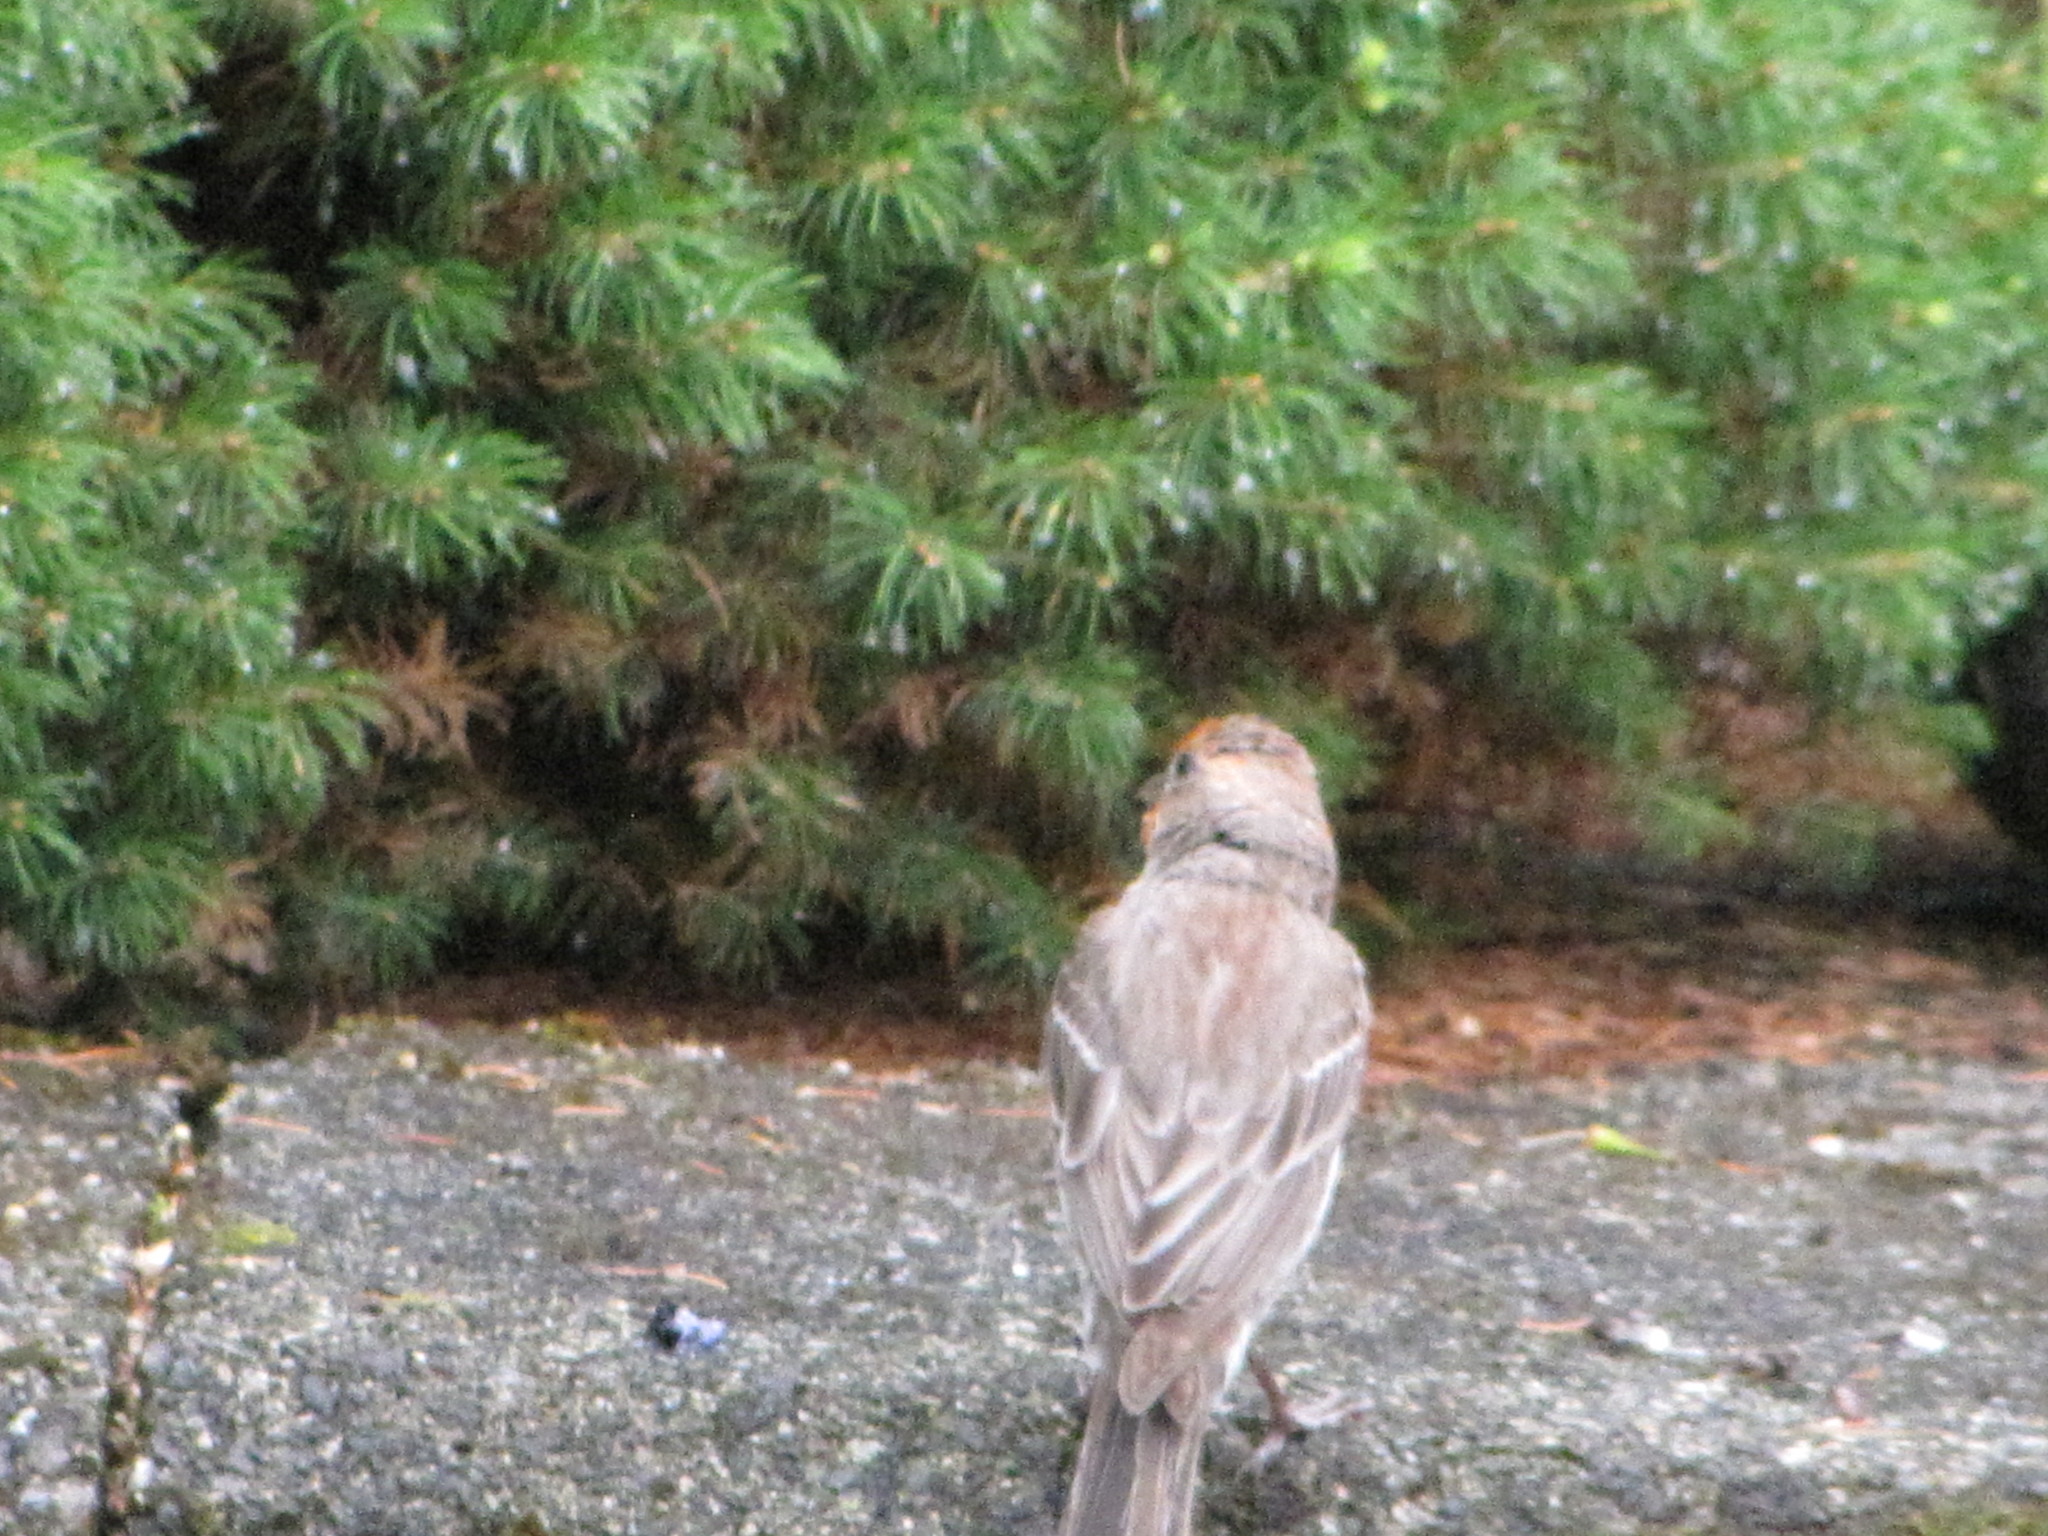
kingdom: Animalia
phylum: Chordata
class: Aves
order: Passeriformes
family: Fringillidae
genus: Haemorhous
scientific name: Haemorhous mexicanus
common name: House finch
